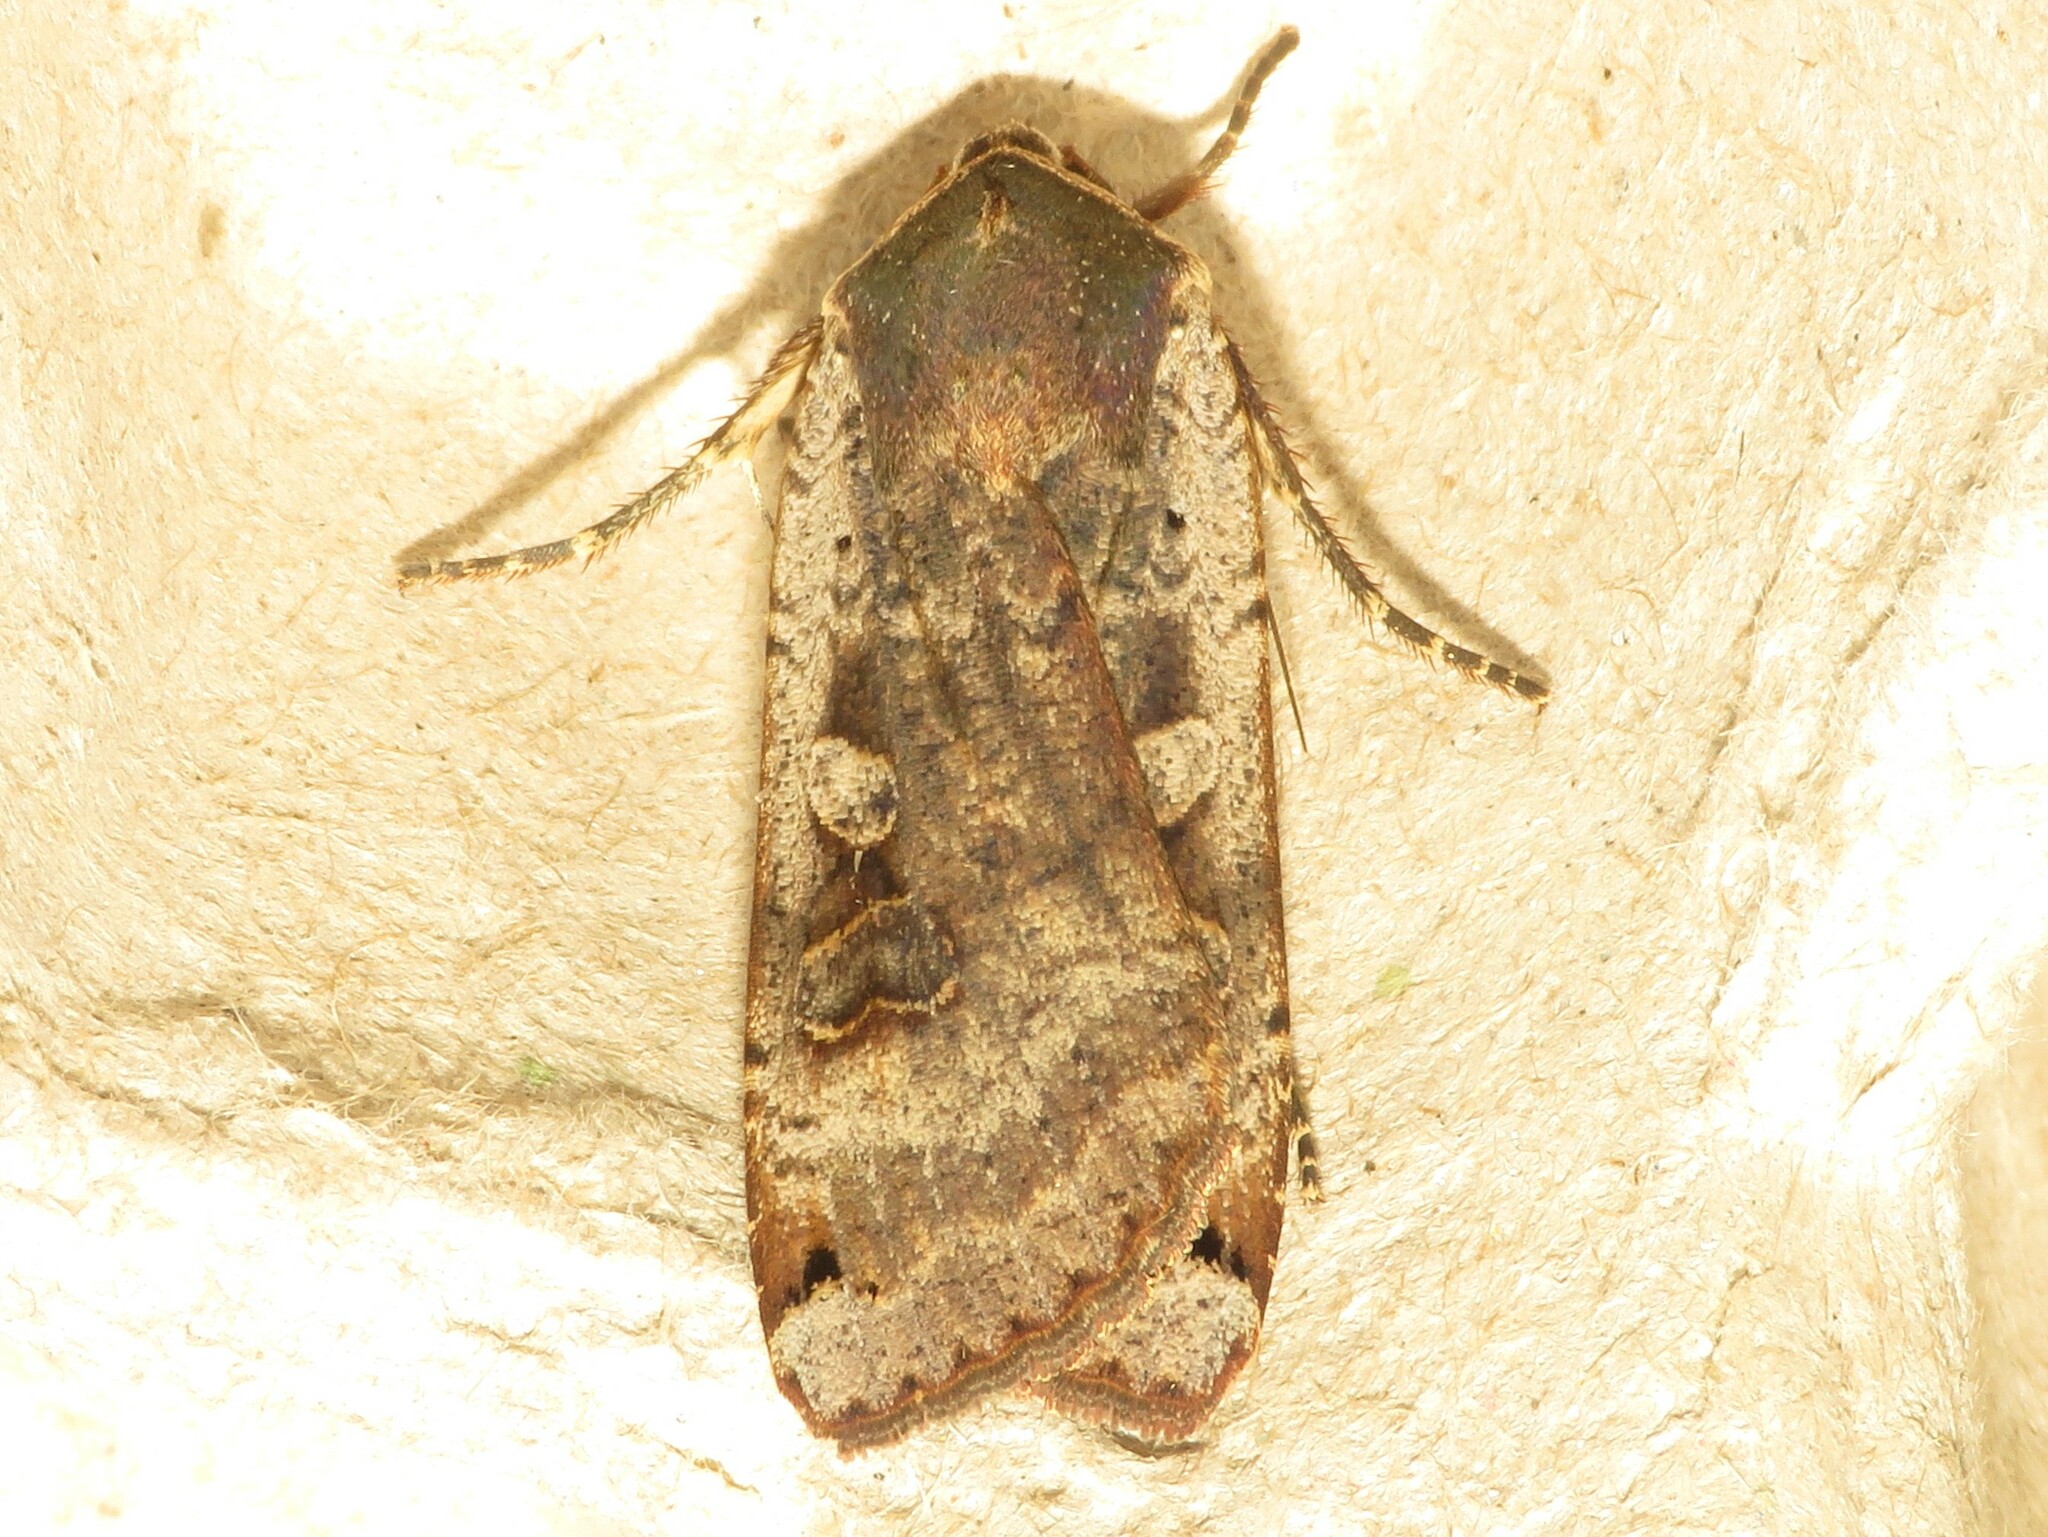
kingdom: Animalia
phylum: Arthropoda
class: Insecta
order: Lepidoptera
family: Noctuidae
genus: Noctua
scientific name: Noctua pronuba
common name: Large yellow underwing
